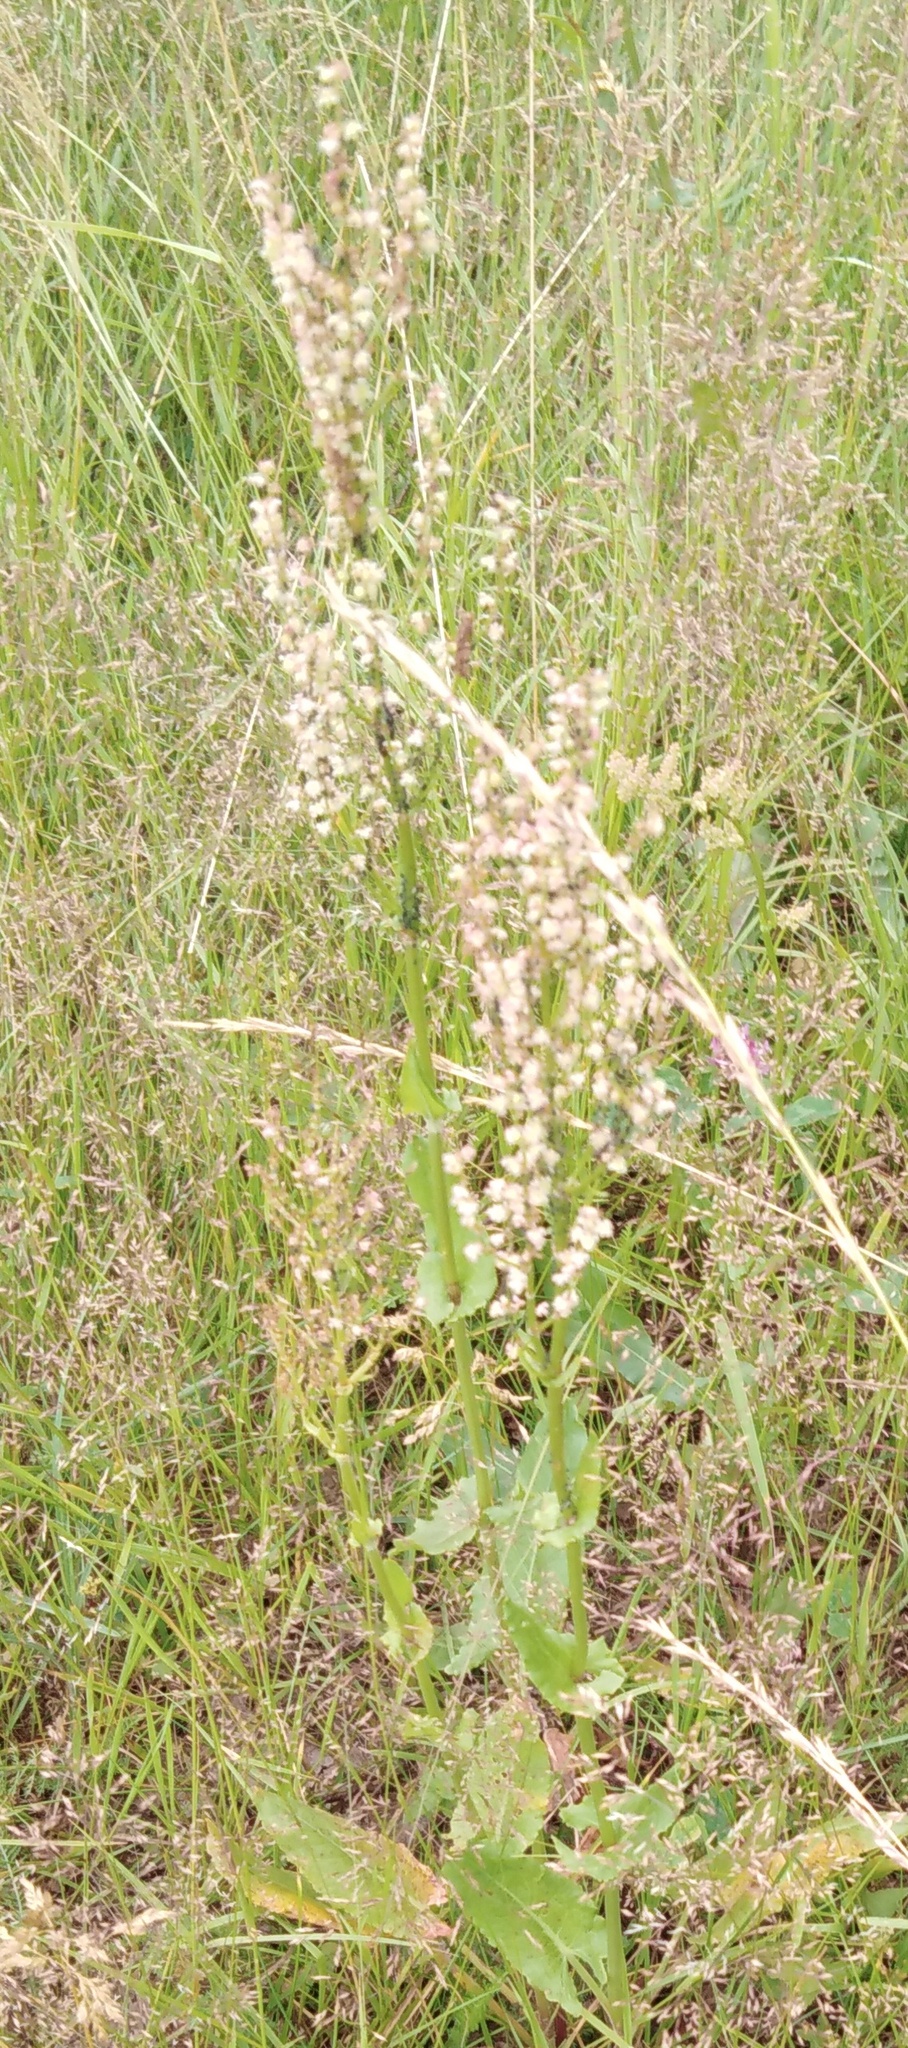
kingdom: Plantae
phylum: Tracheophyta
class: Magnoliopsida
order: Caryophyllales
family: Polygonaceae
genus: Rumex
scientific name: Rumex thyrsiflorus
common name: Garden sorrel
